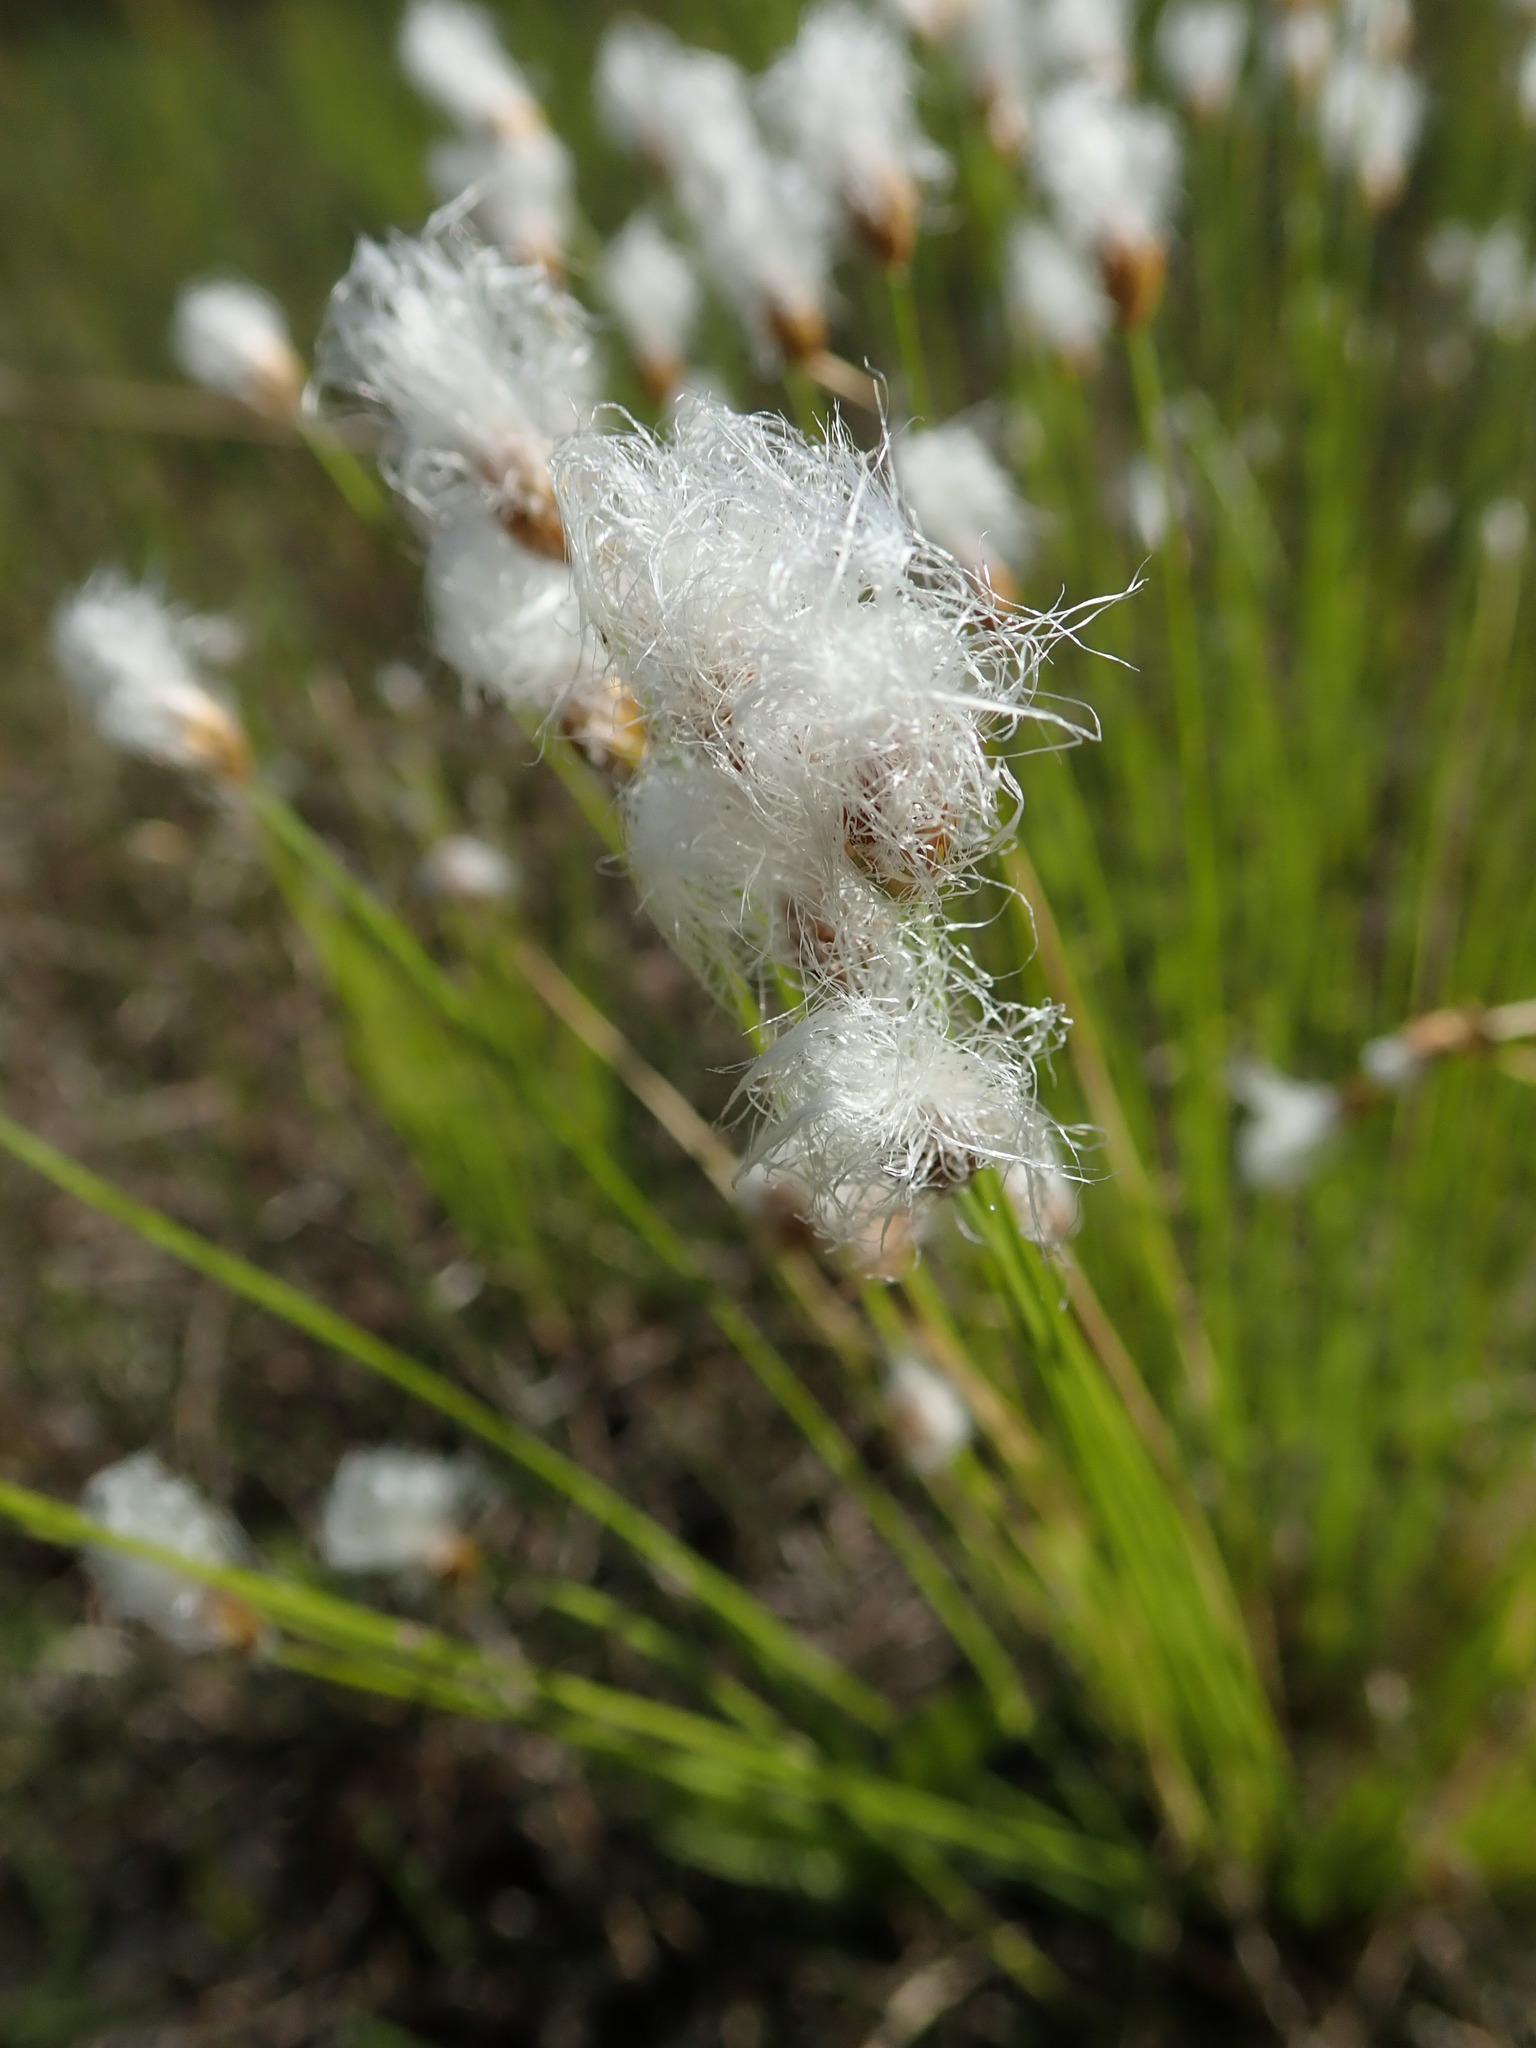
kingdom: Plantae
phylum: Tracheophyta
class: Liliopsida
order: Poales
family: Cyperaceae
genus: Trichophorum
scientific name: Trichophorum alpinum
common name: Alpine bulrush
